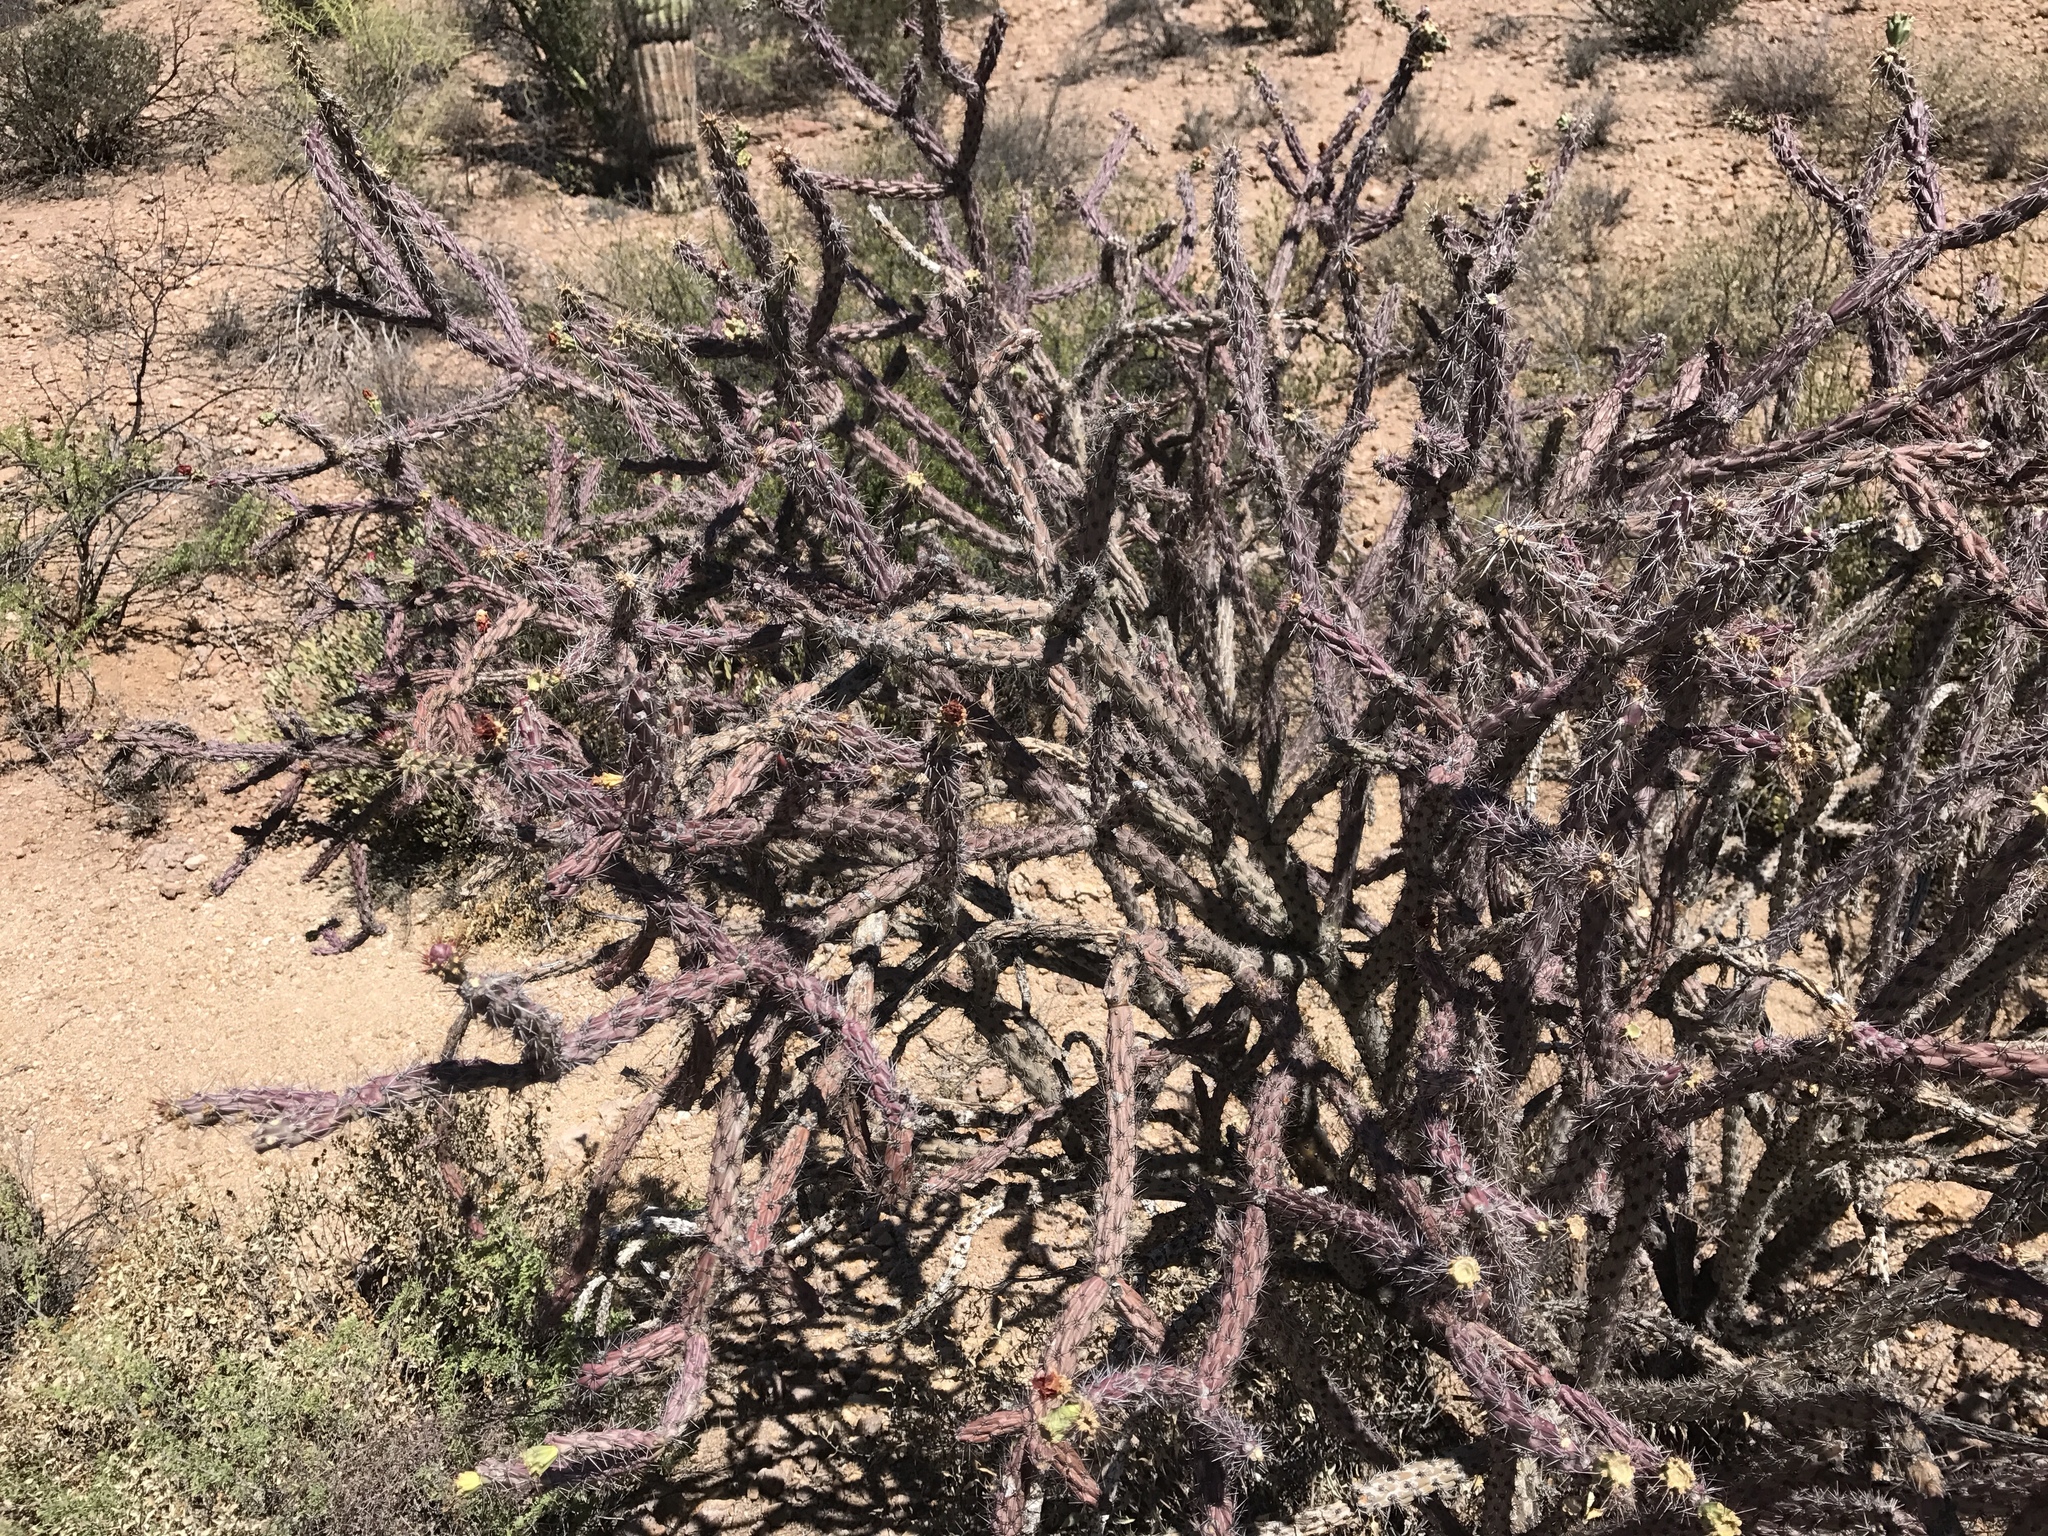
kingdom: Plantae
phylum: Tracheophyta
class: Magnoliopsida
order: Caryophyllales
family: Cactaceae
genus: Cylindropuntia
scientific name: Cylindropuntia thurberi
